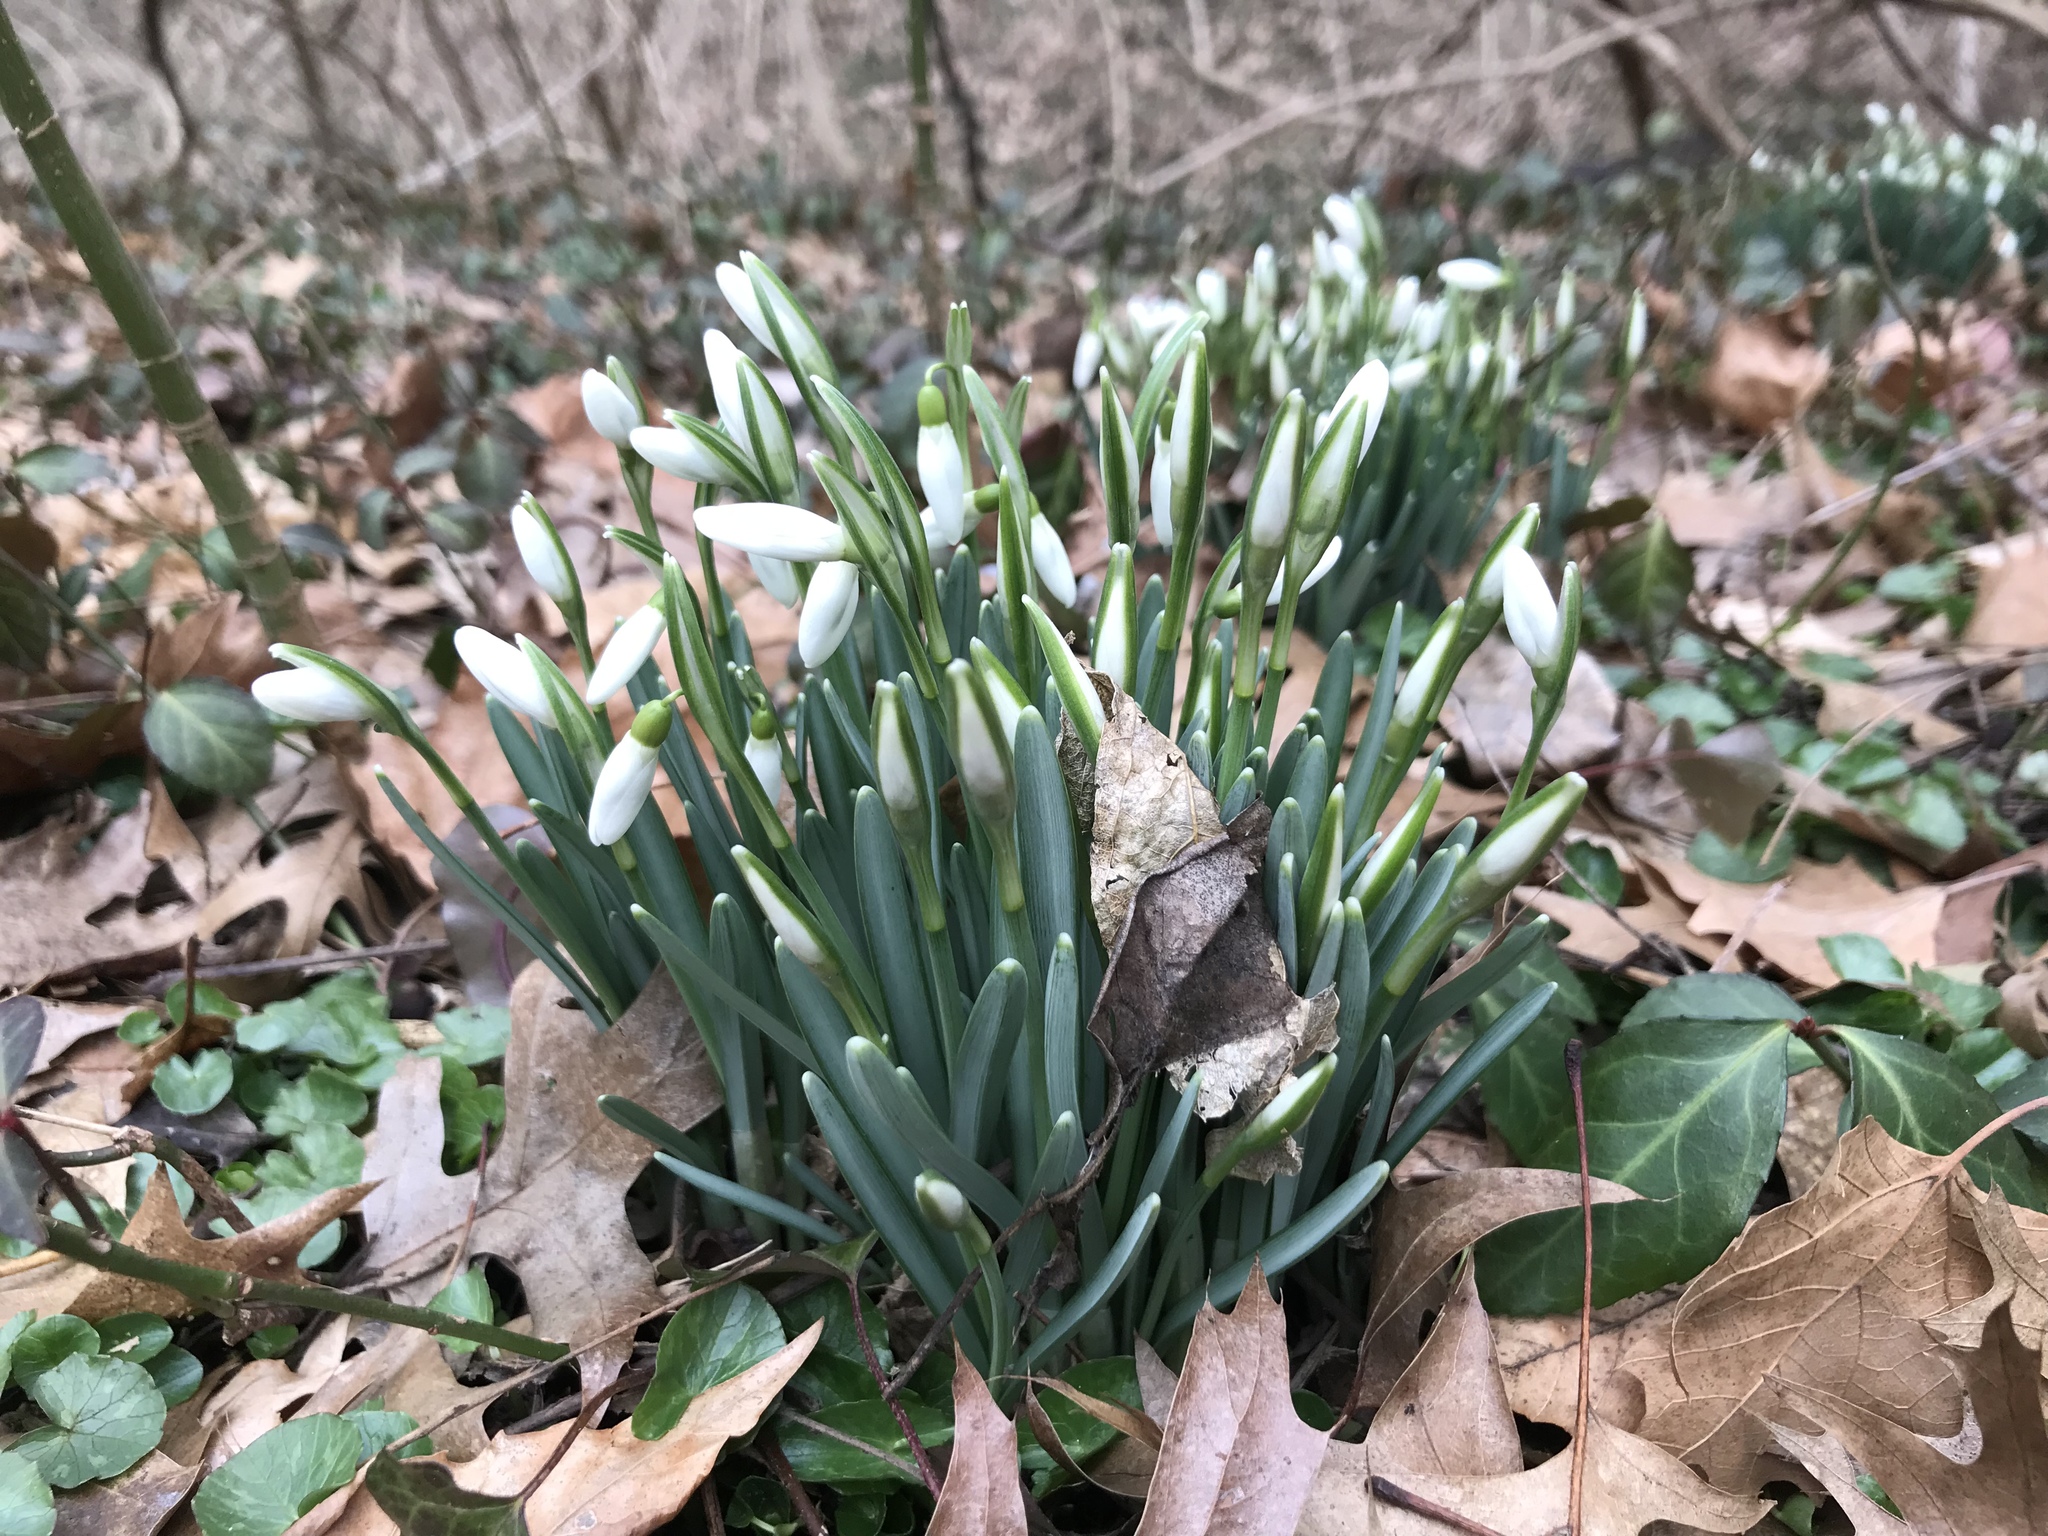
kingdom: Plantae
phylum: Tracheophyta
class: Liliopsida
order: Asparagales
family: Amaryllidaceae
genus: Galanthus
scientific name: Galanthus nivalis
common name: Snowdrop
